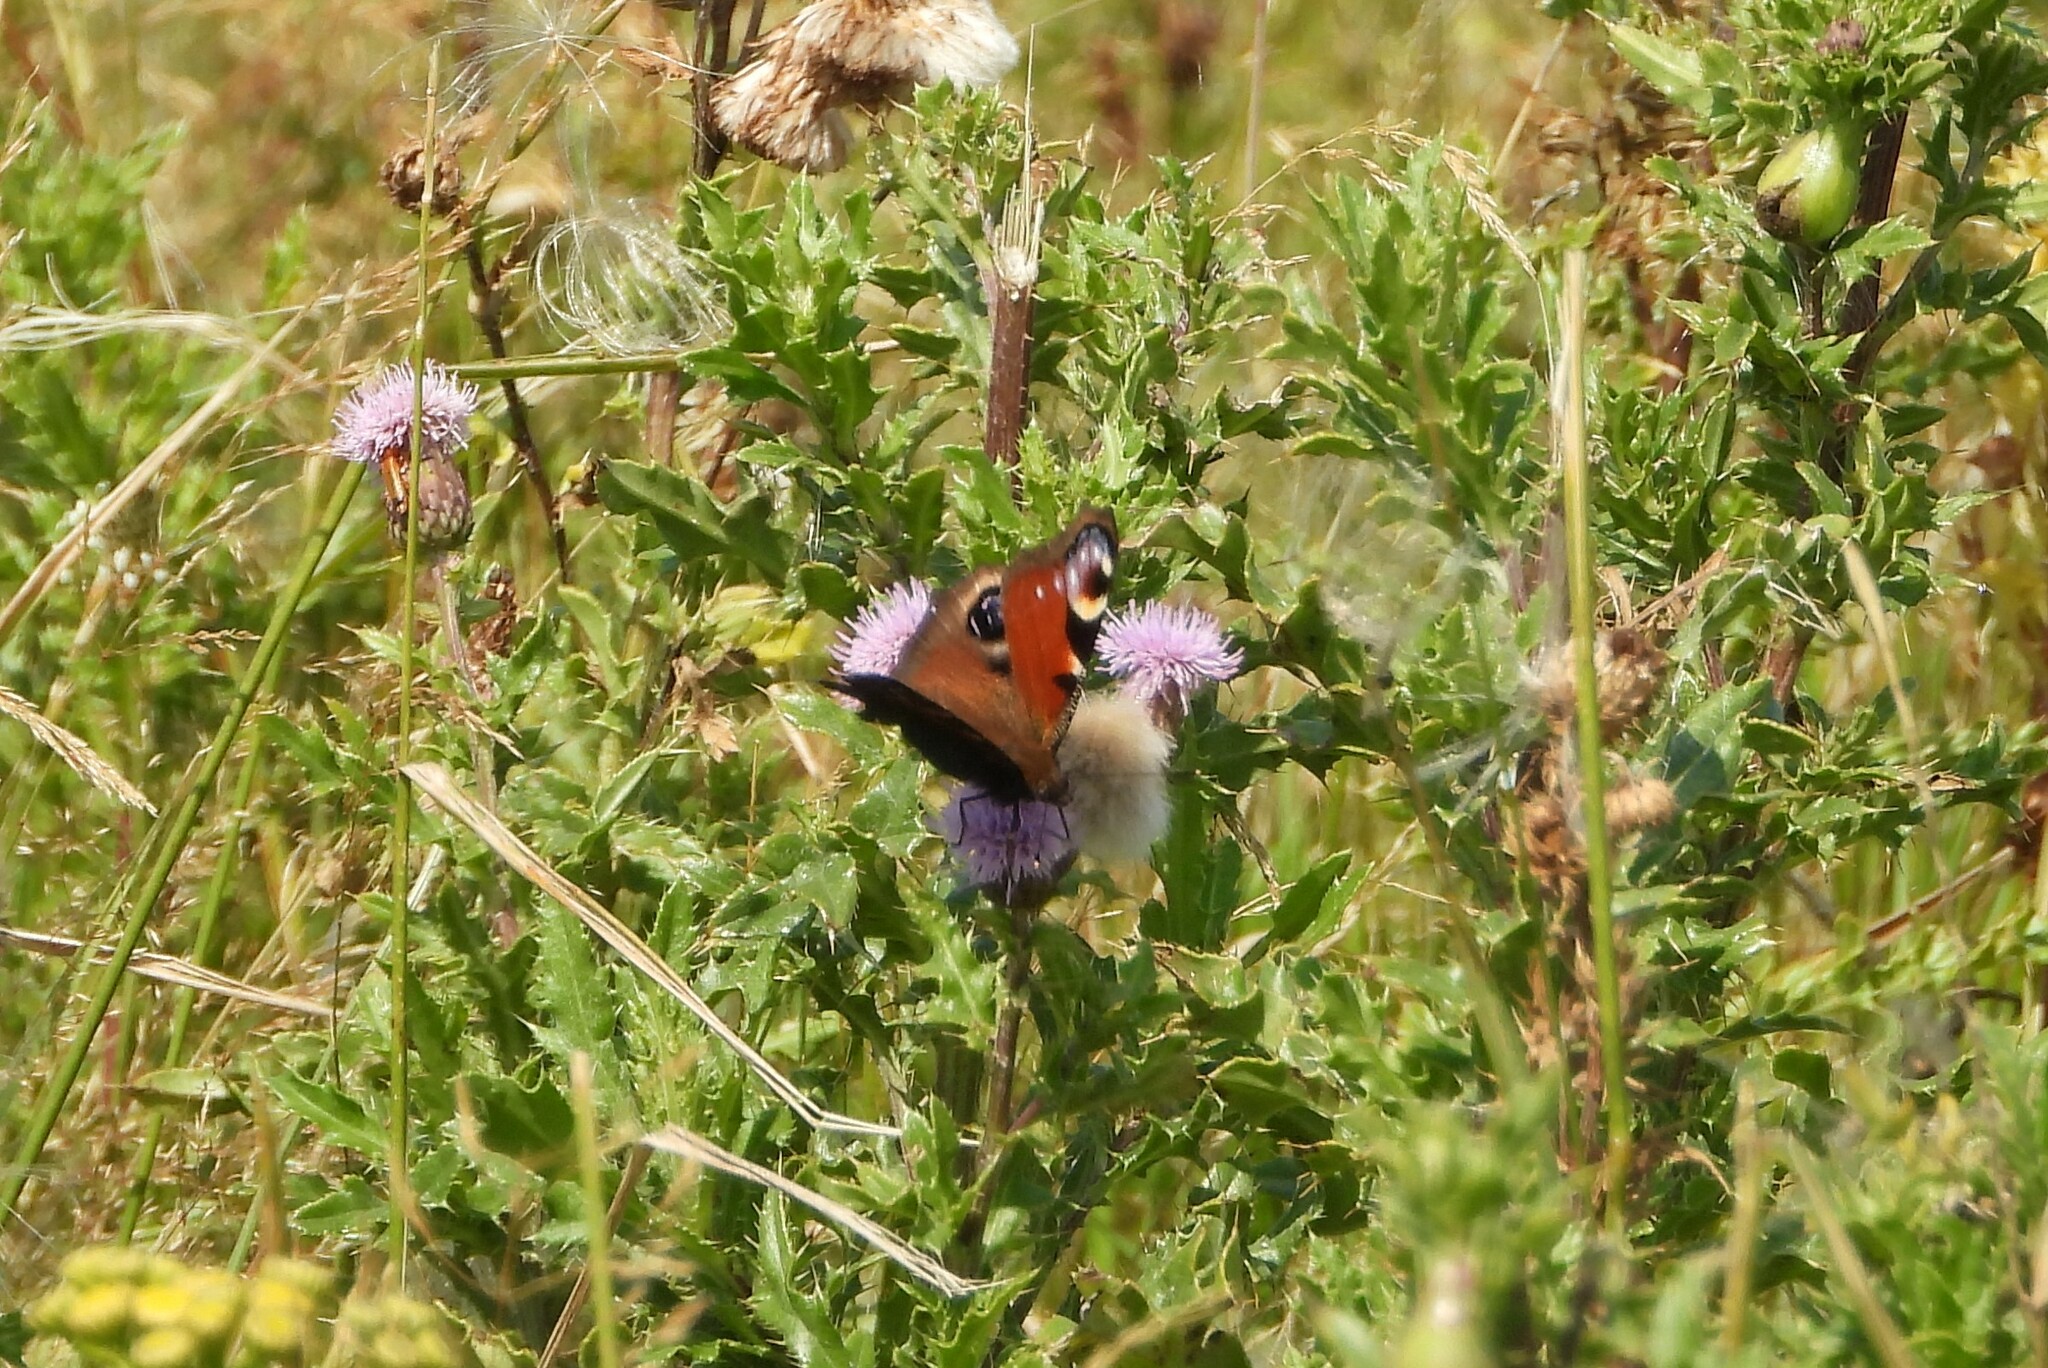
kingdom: Animalia
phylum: Arthropoda
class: Insecta
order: Lepidoptera
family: Nymphalidae
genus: Aglais
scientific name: Aglais io
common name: Peacock
